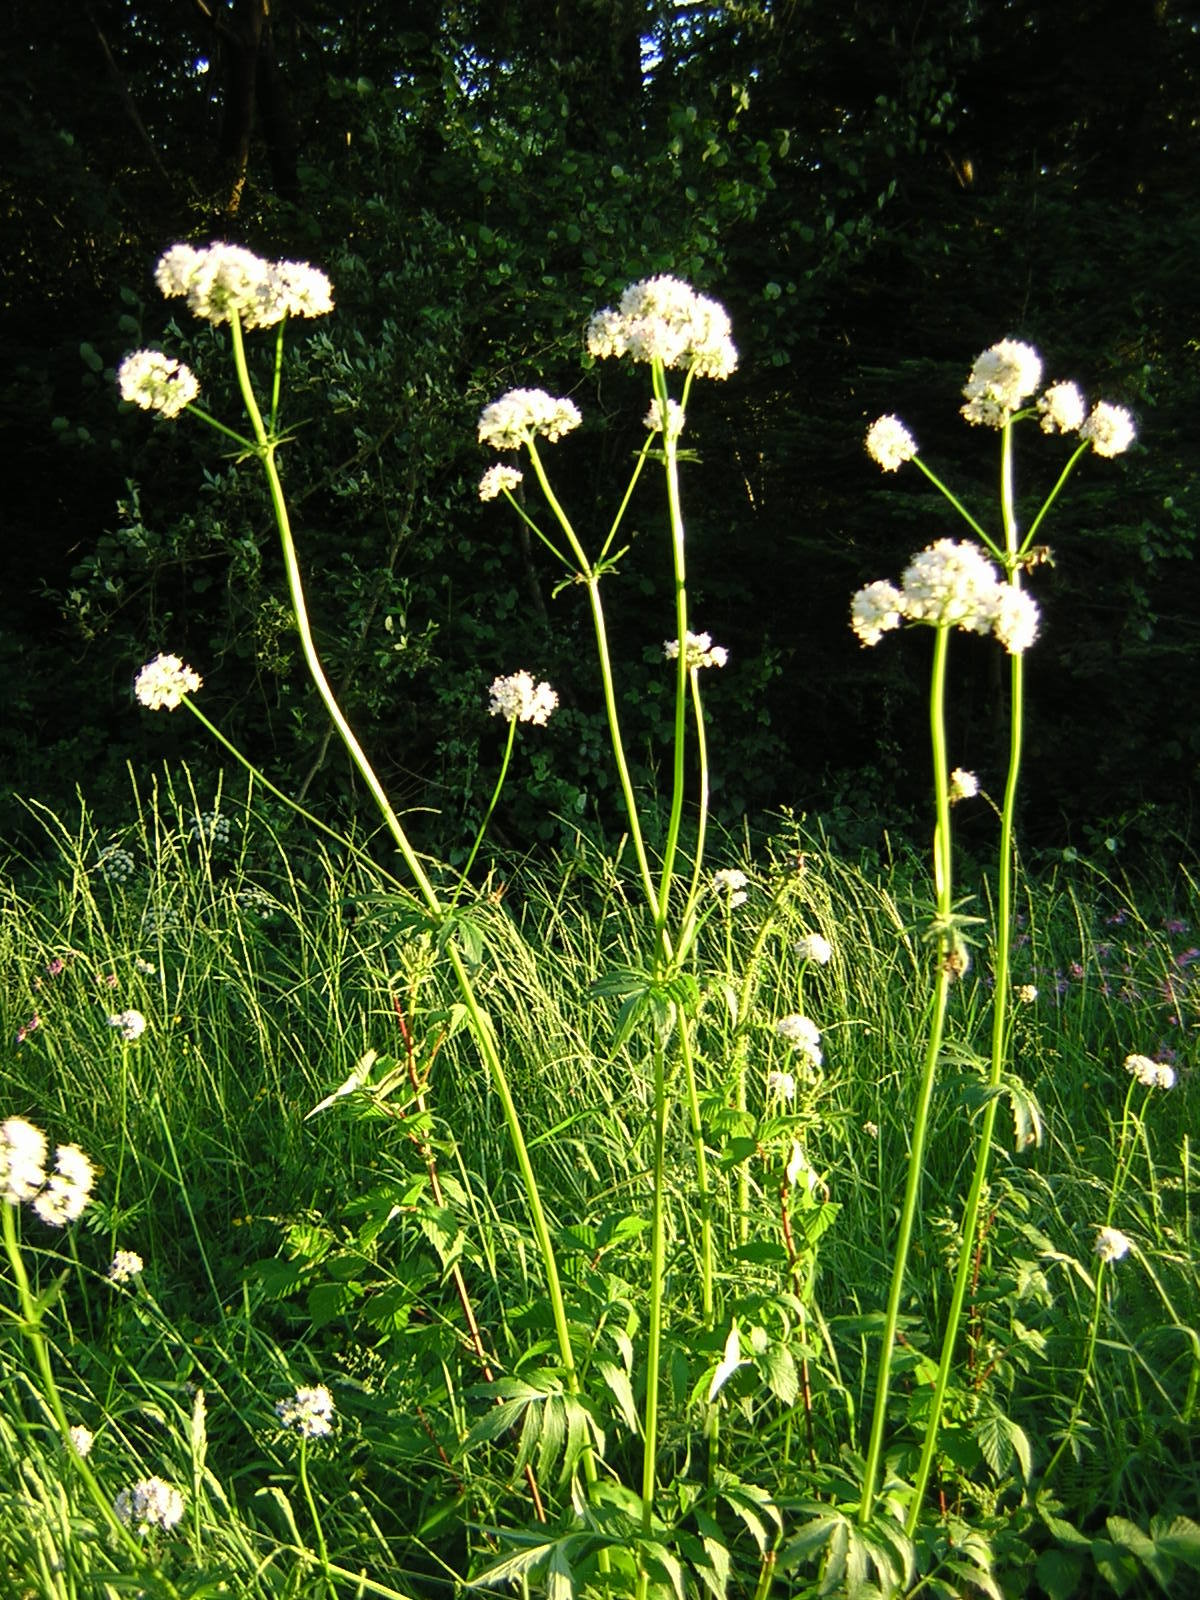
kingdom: Plantae
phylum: Tracheophyta
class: Magnoliopsida
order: Dipsacales
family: Caprifoliaceae
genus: Valeriana
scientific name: Valeriana officinalis
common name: Common valerian
